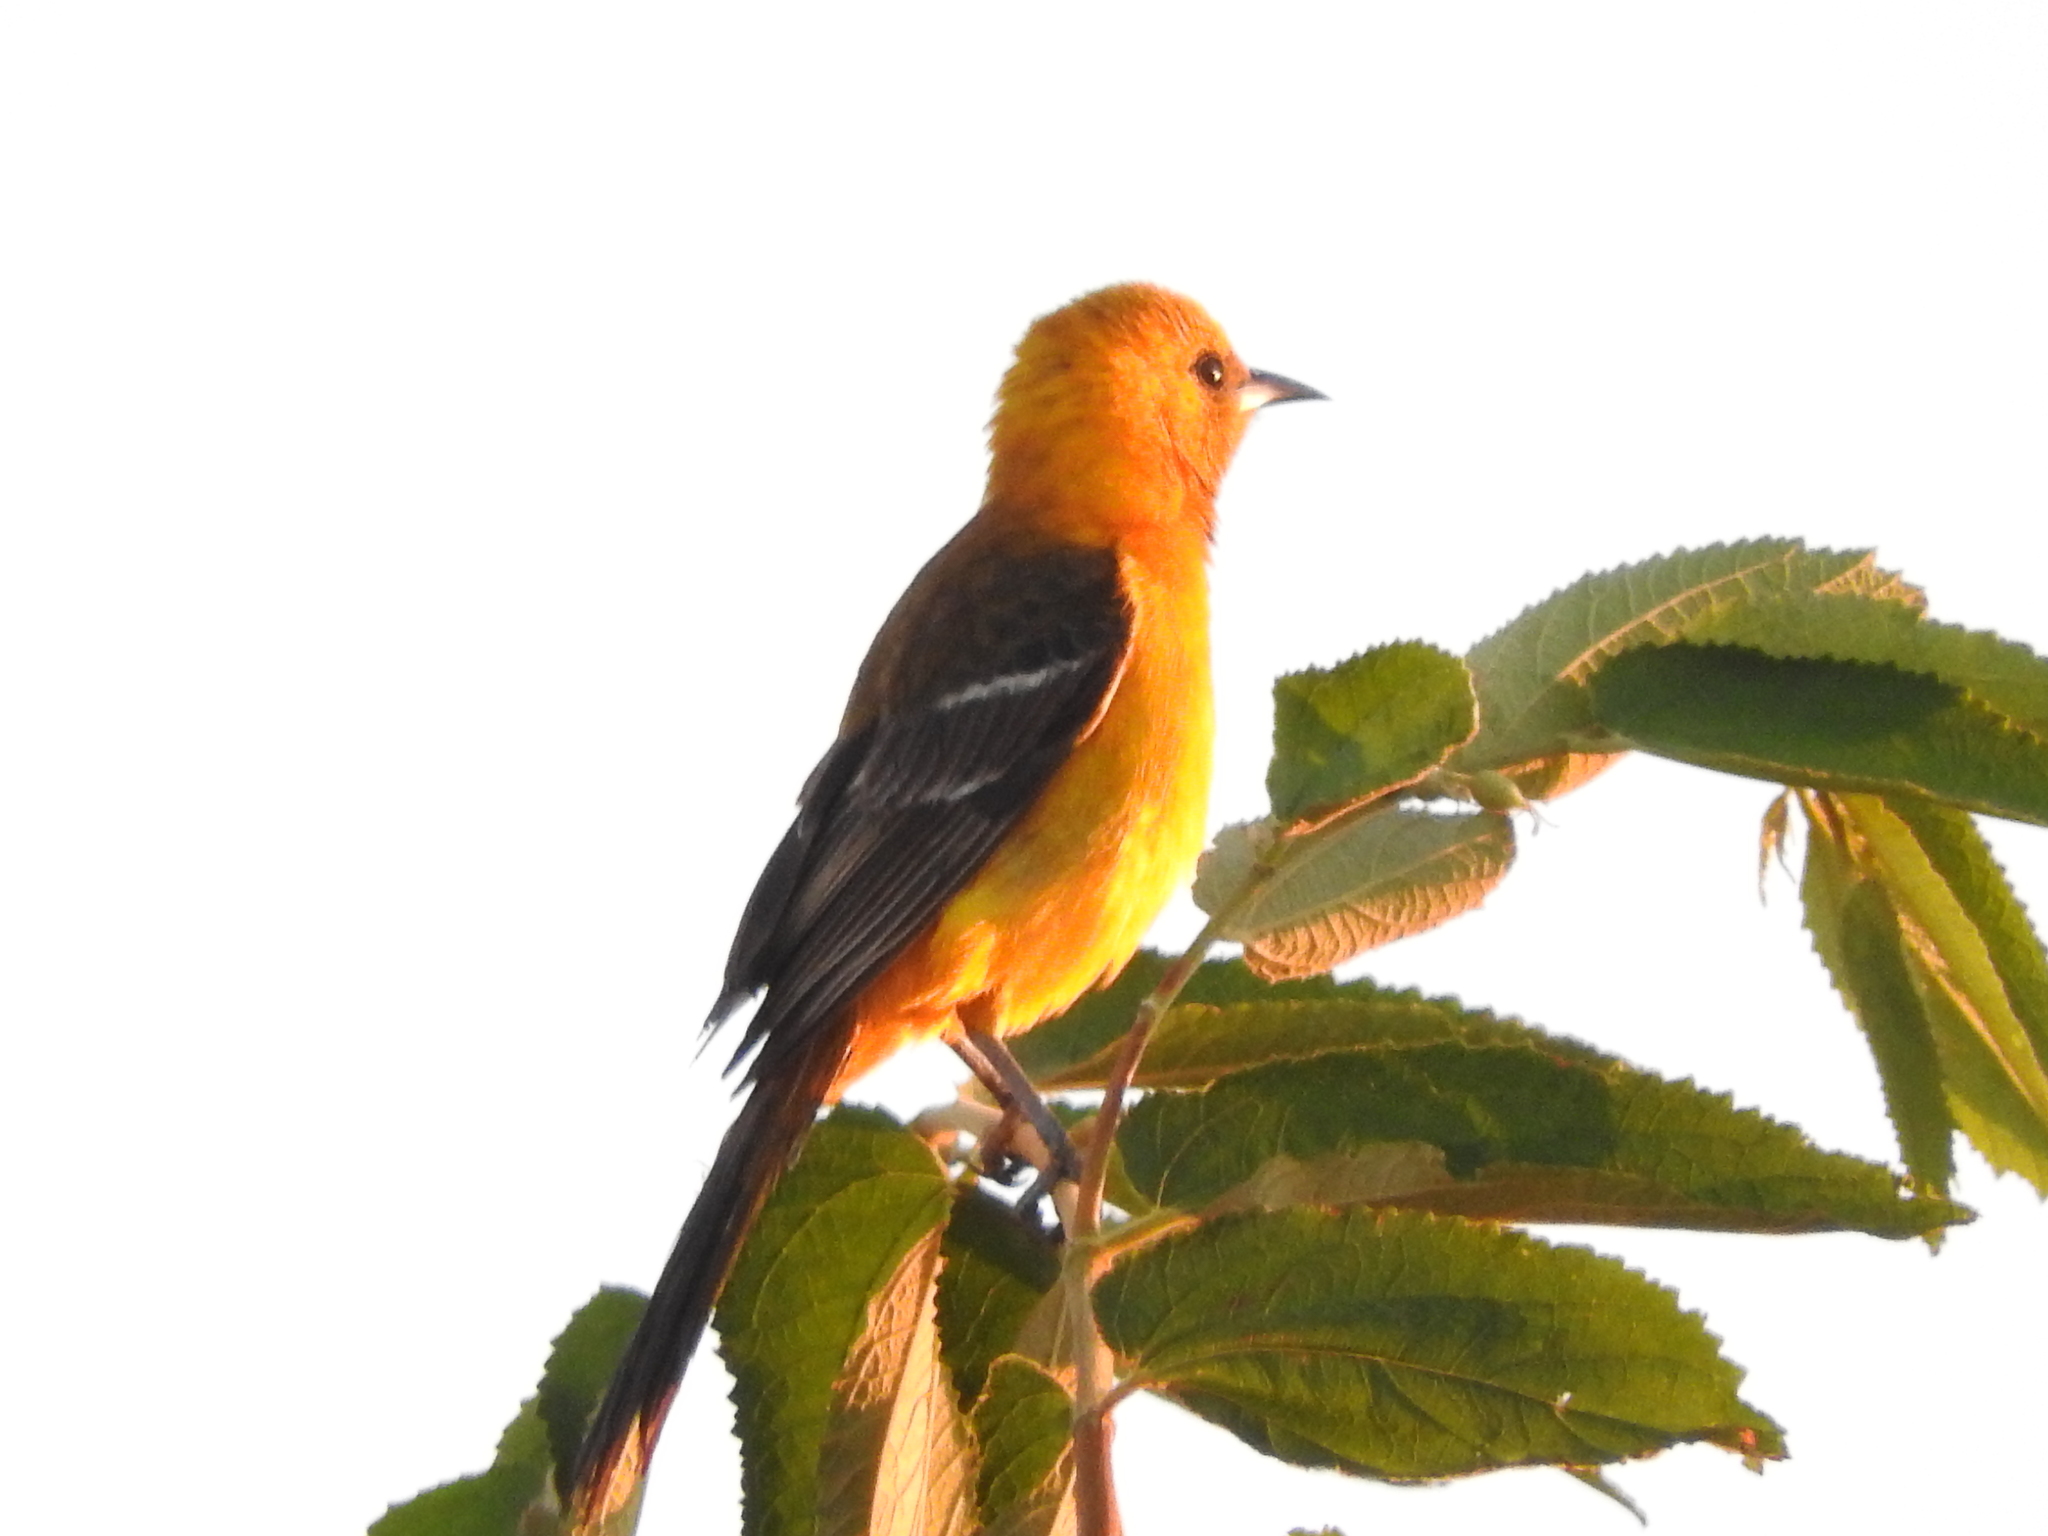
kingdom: Animalia
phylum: Chordata
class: Aves
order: Passeriformes
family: Icteridae
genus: Icterus
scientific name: Icterus cucullatus
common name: Hooded oriole
